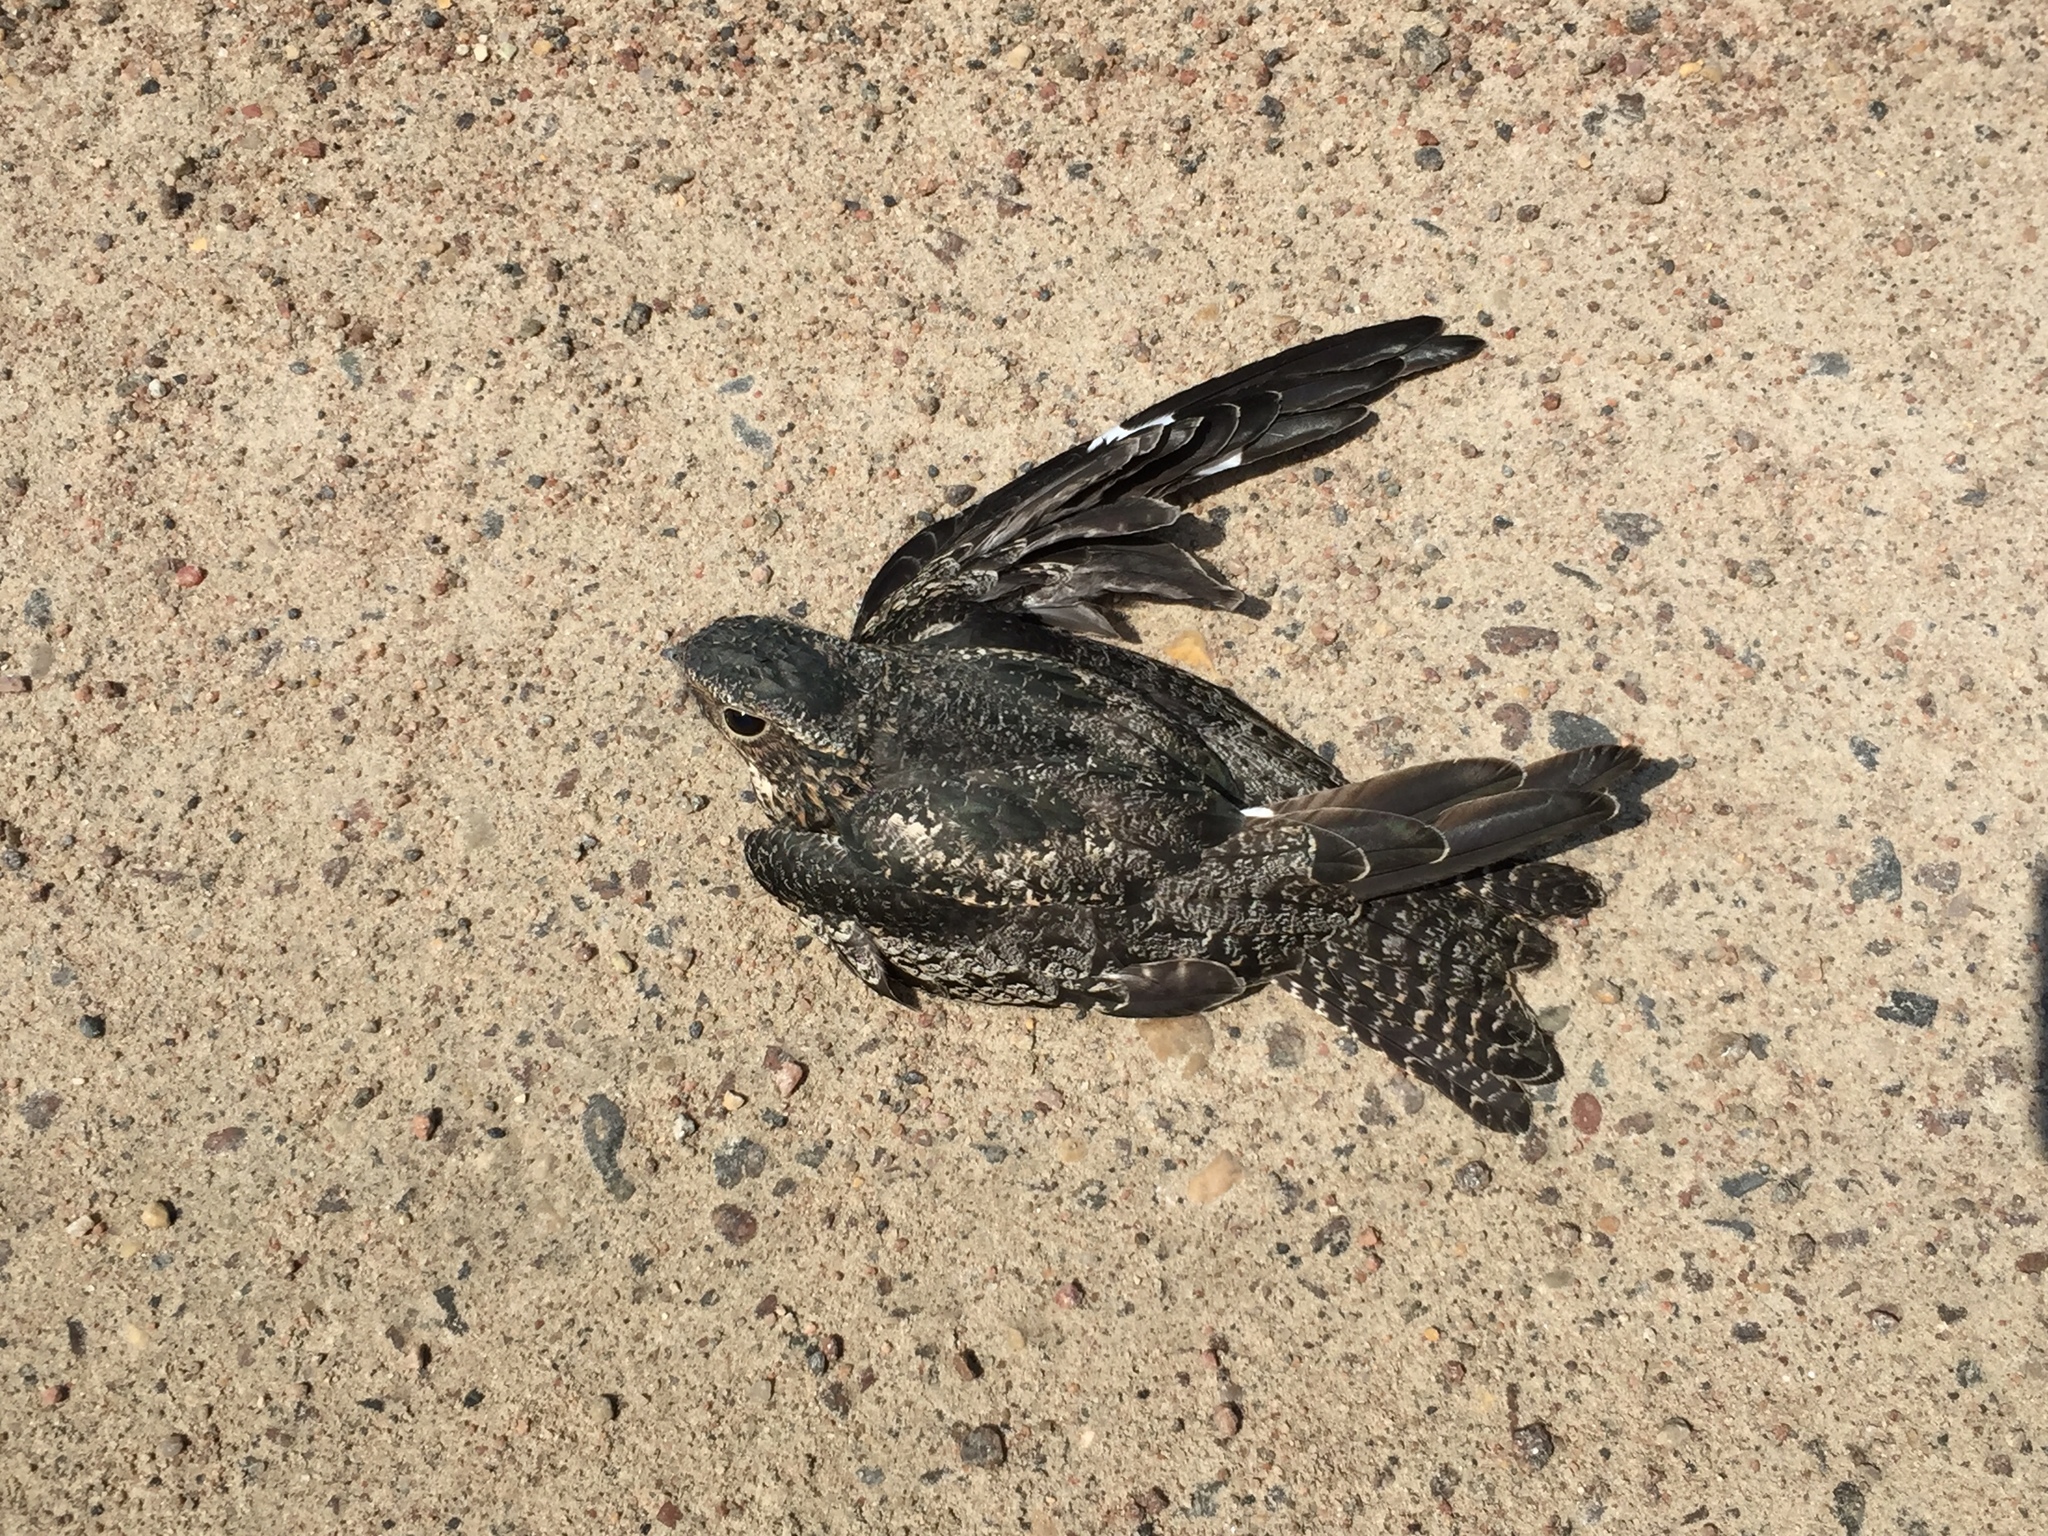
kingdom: Animalia
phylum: Chordata
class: Aves
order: Caprimulgiformes
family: Caprimulgidae
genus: Chordeiles
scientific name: Chordeiles minor
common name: Common nighthawk
